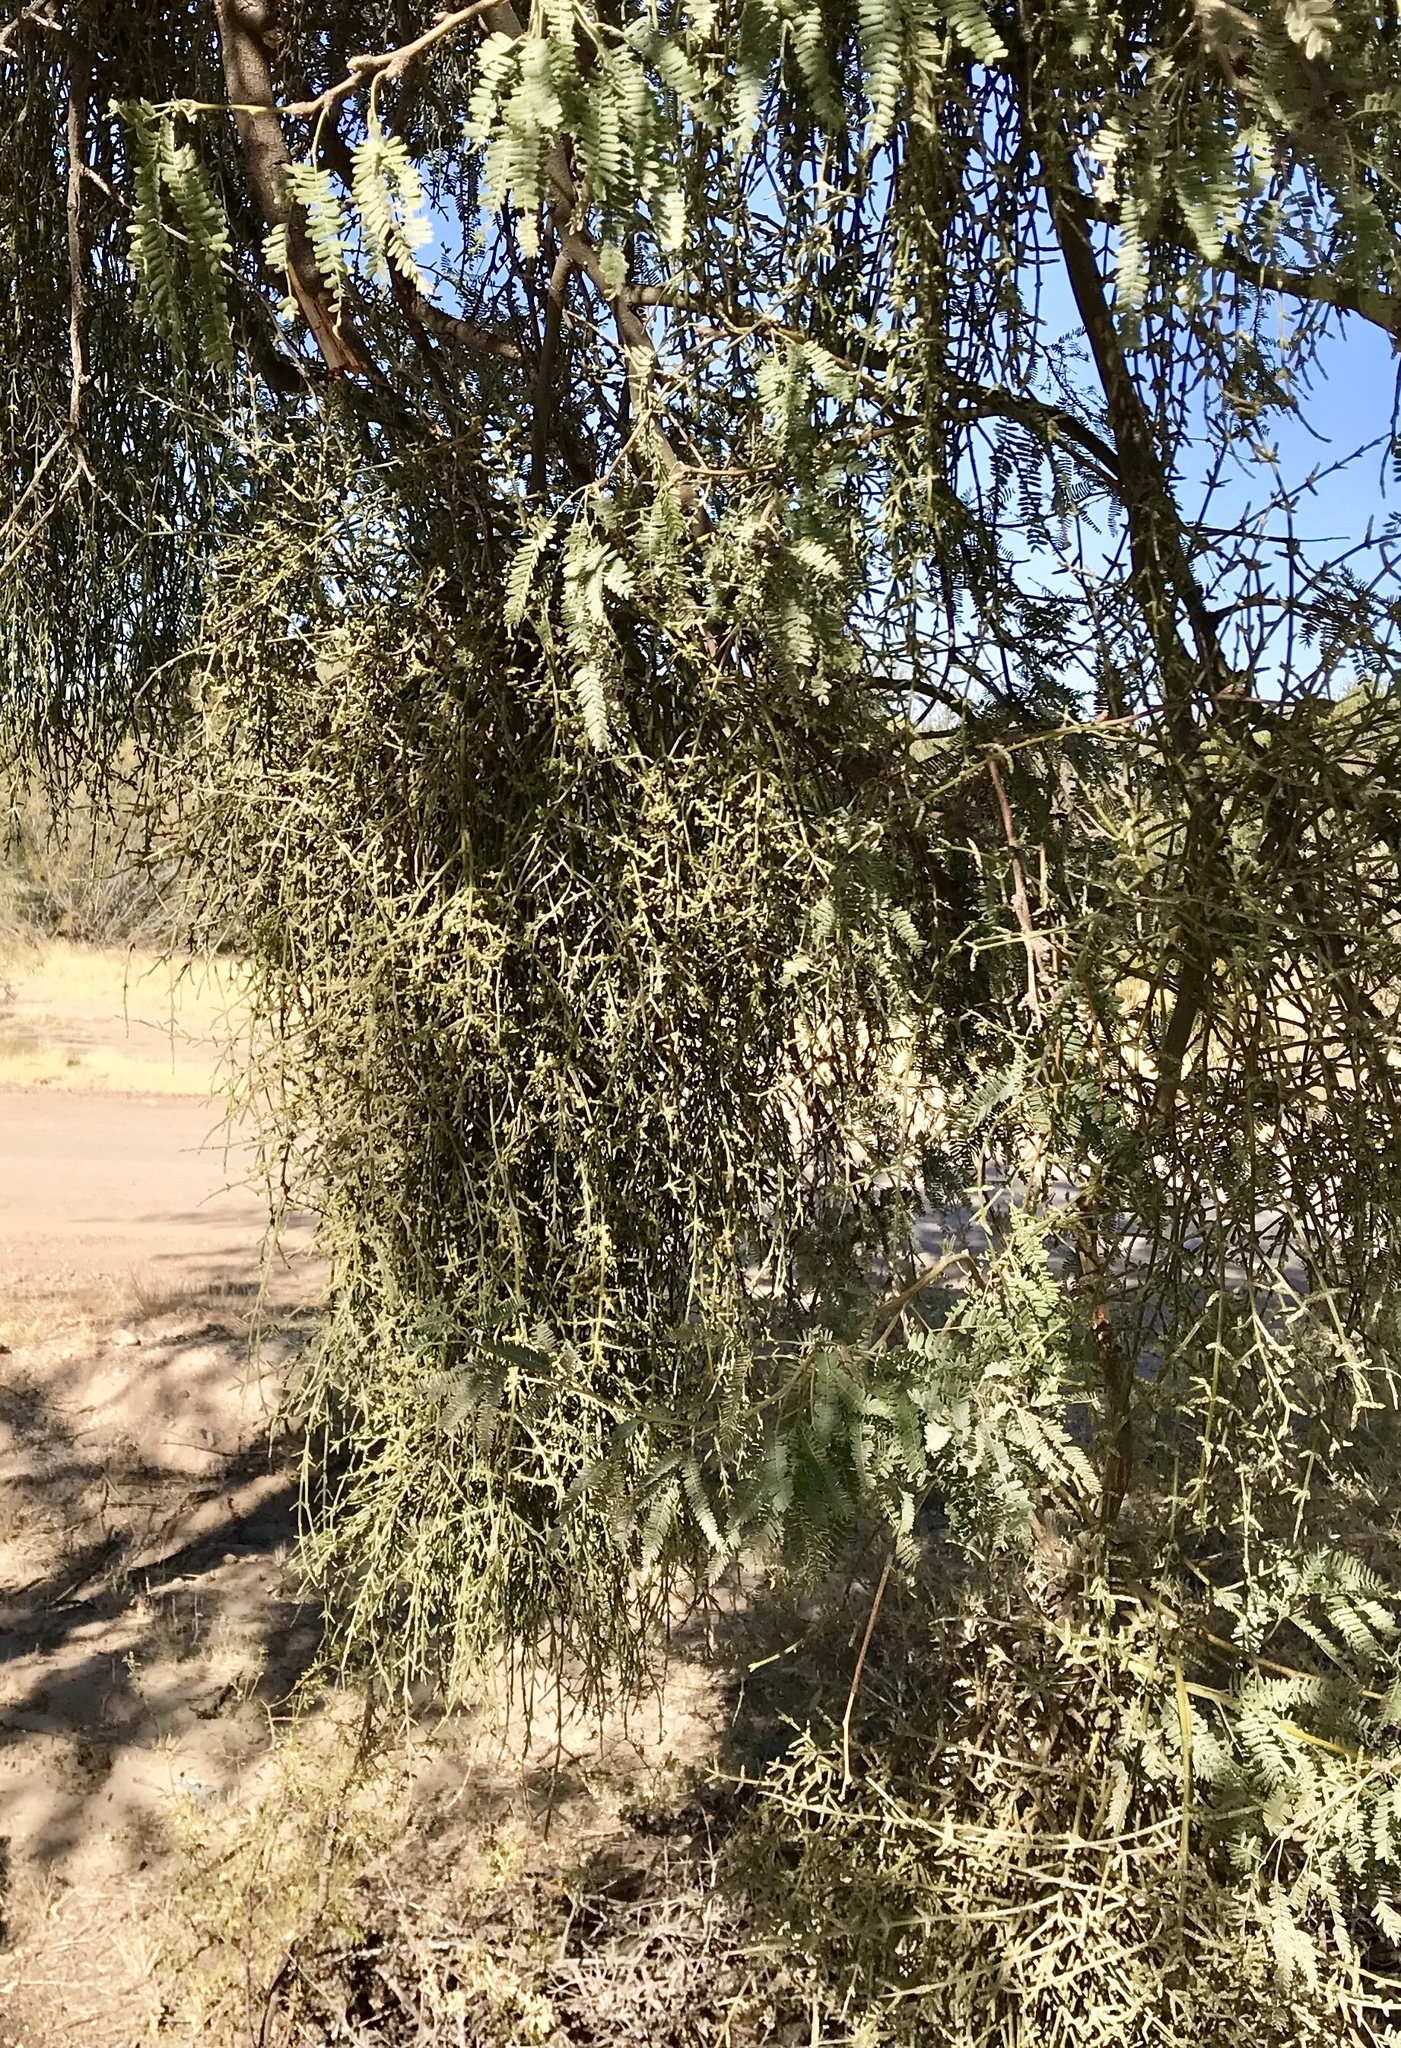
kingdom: Plantae
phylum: Tracheophyta
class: Magnoliopsida
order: Santalales
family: Viscaceae
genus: Phoradendron
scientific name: Phoradendron californicum
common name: Acacia mistletoe
